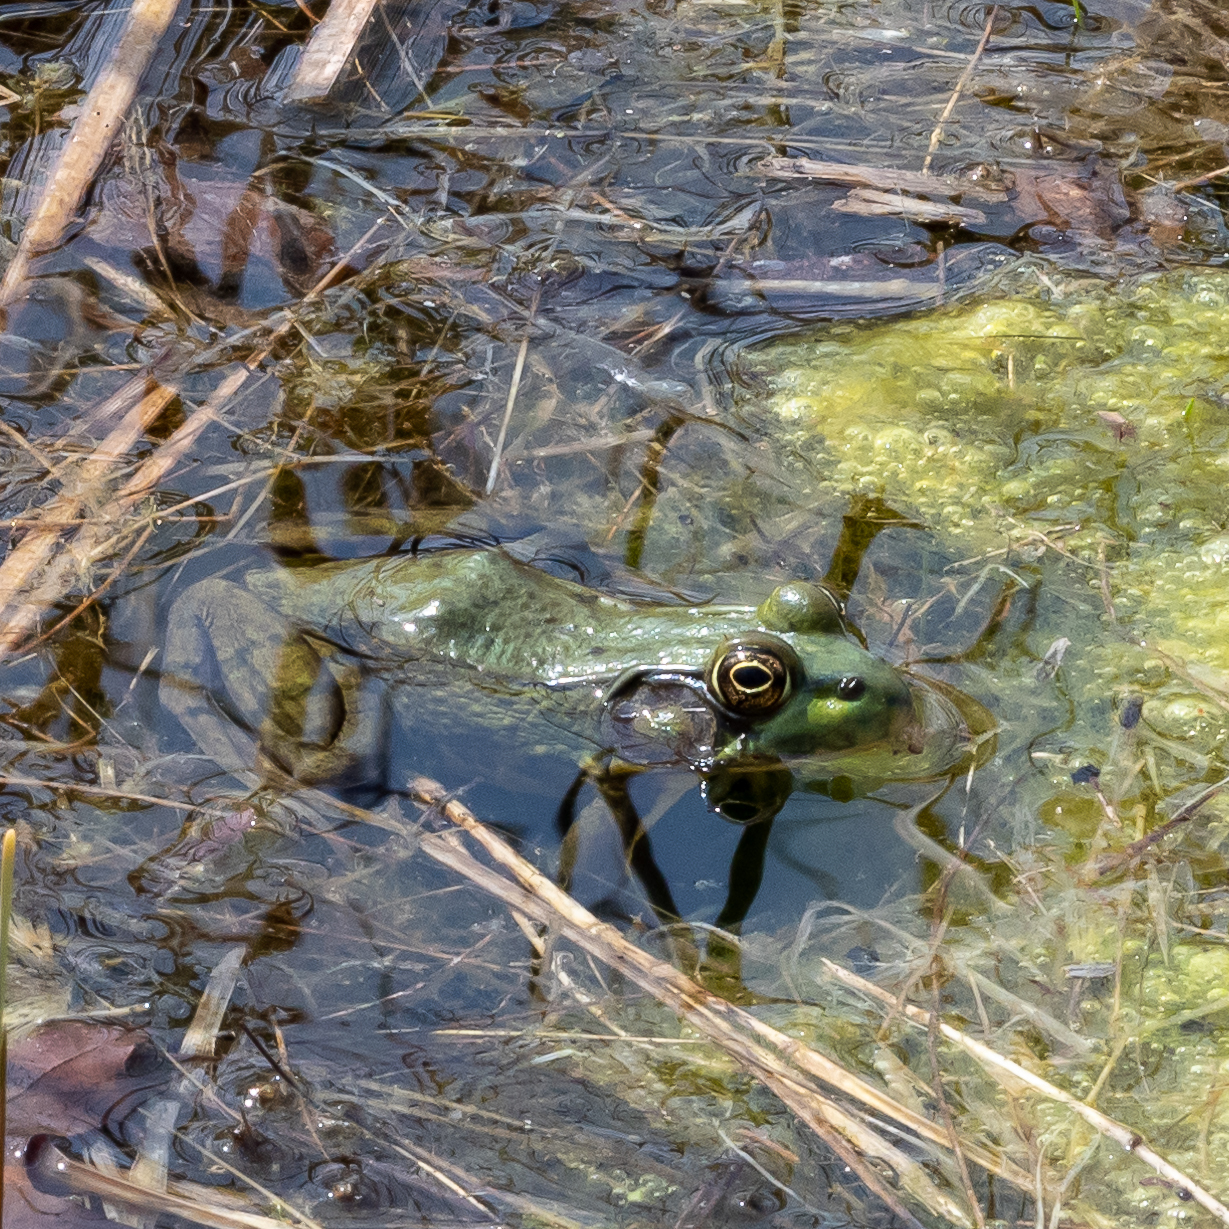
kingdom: Animalia
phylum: Chordata
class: Amphibia
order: Anura
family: Ranidae
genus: Lithobates
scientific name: Lithobates clamitans
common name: Green frog
